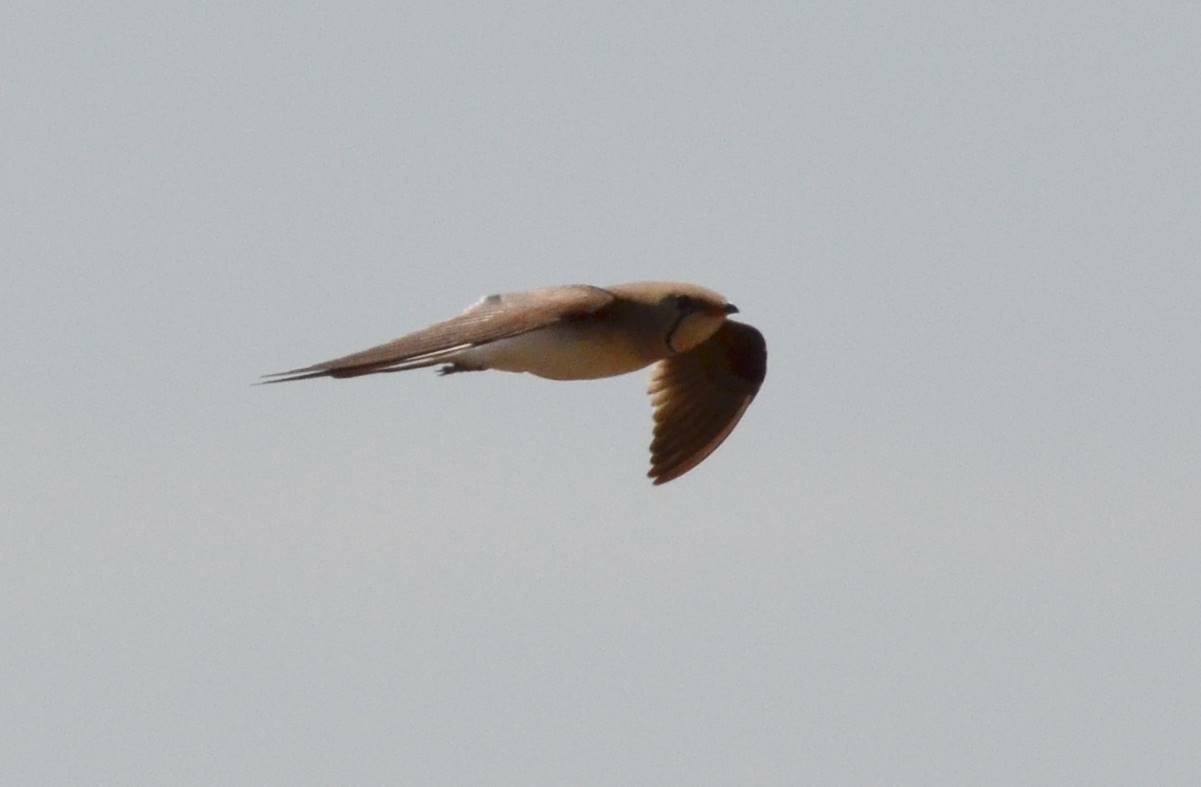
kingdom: Animalia
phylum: Chordata
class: Aves
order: Charadriiformes
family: Glareolidae
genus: Glareola
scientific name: Glareola pratincola
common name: Collared pratincole
